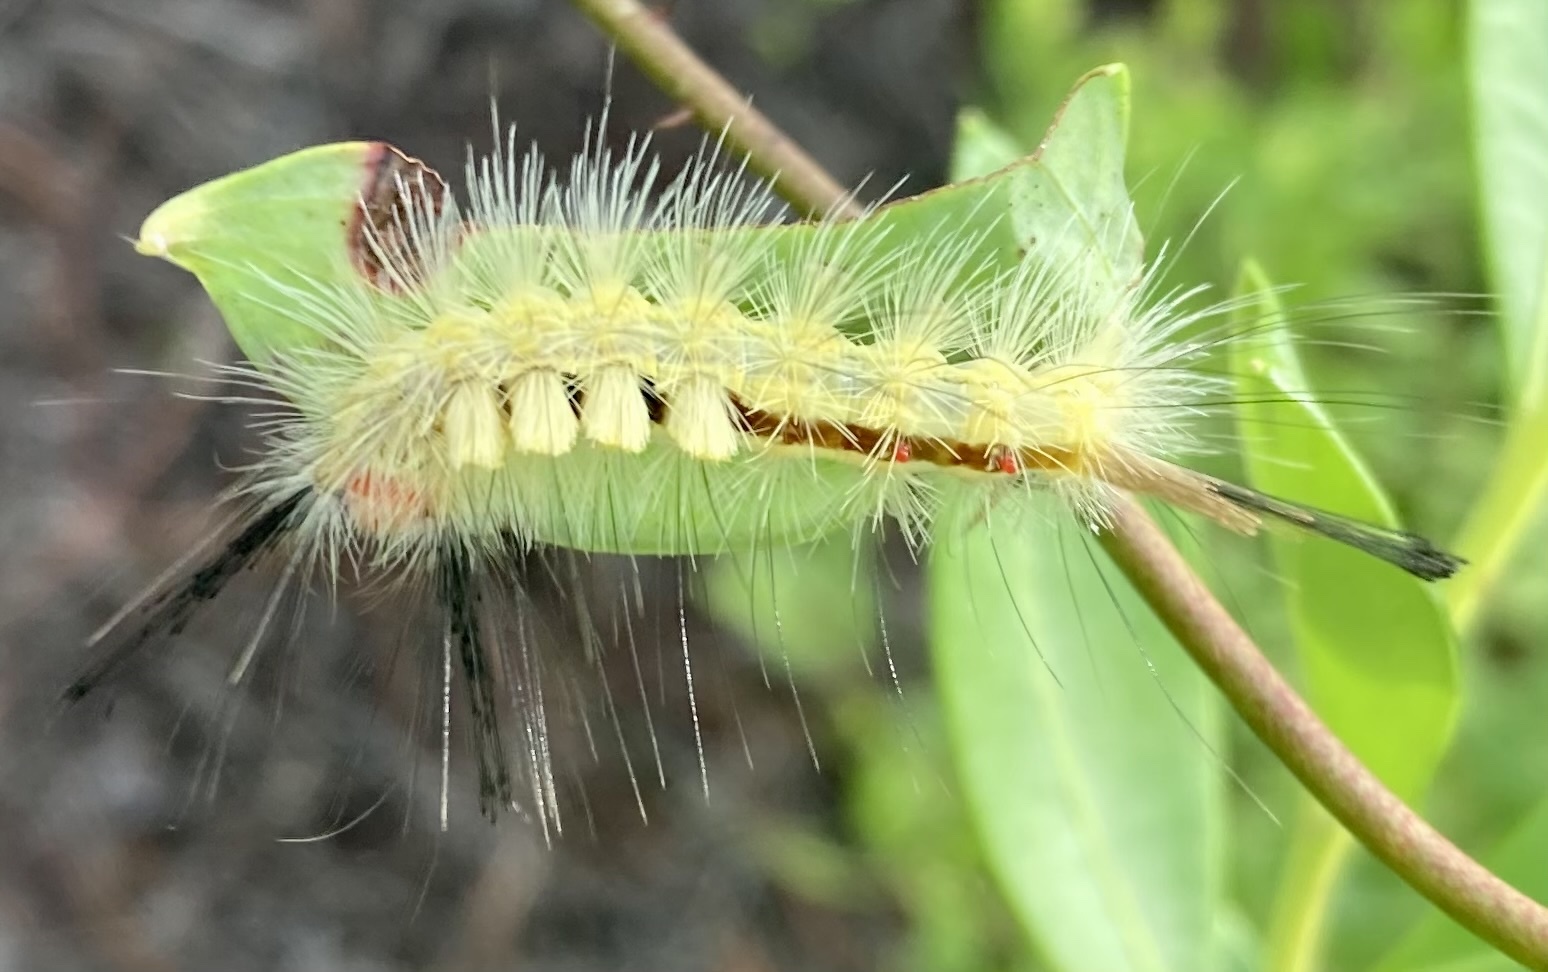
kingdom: Animalia
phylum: Arthropoda
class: Insecta
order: Lepidoptera
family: Erebidae
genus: Orgyia
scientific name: Orgyia leucostigma
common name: White-marked tussock moth
